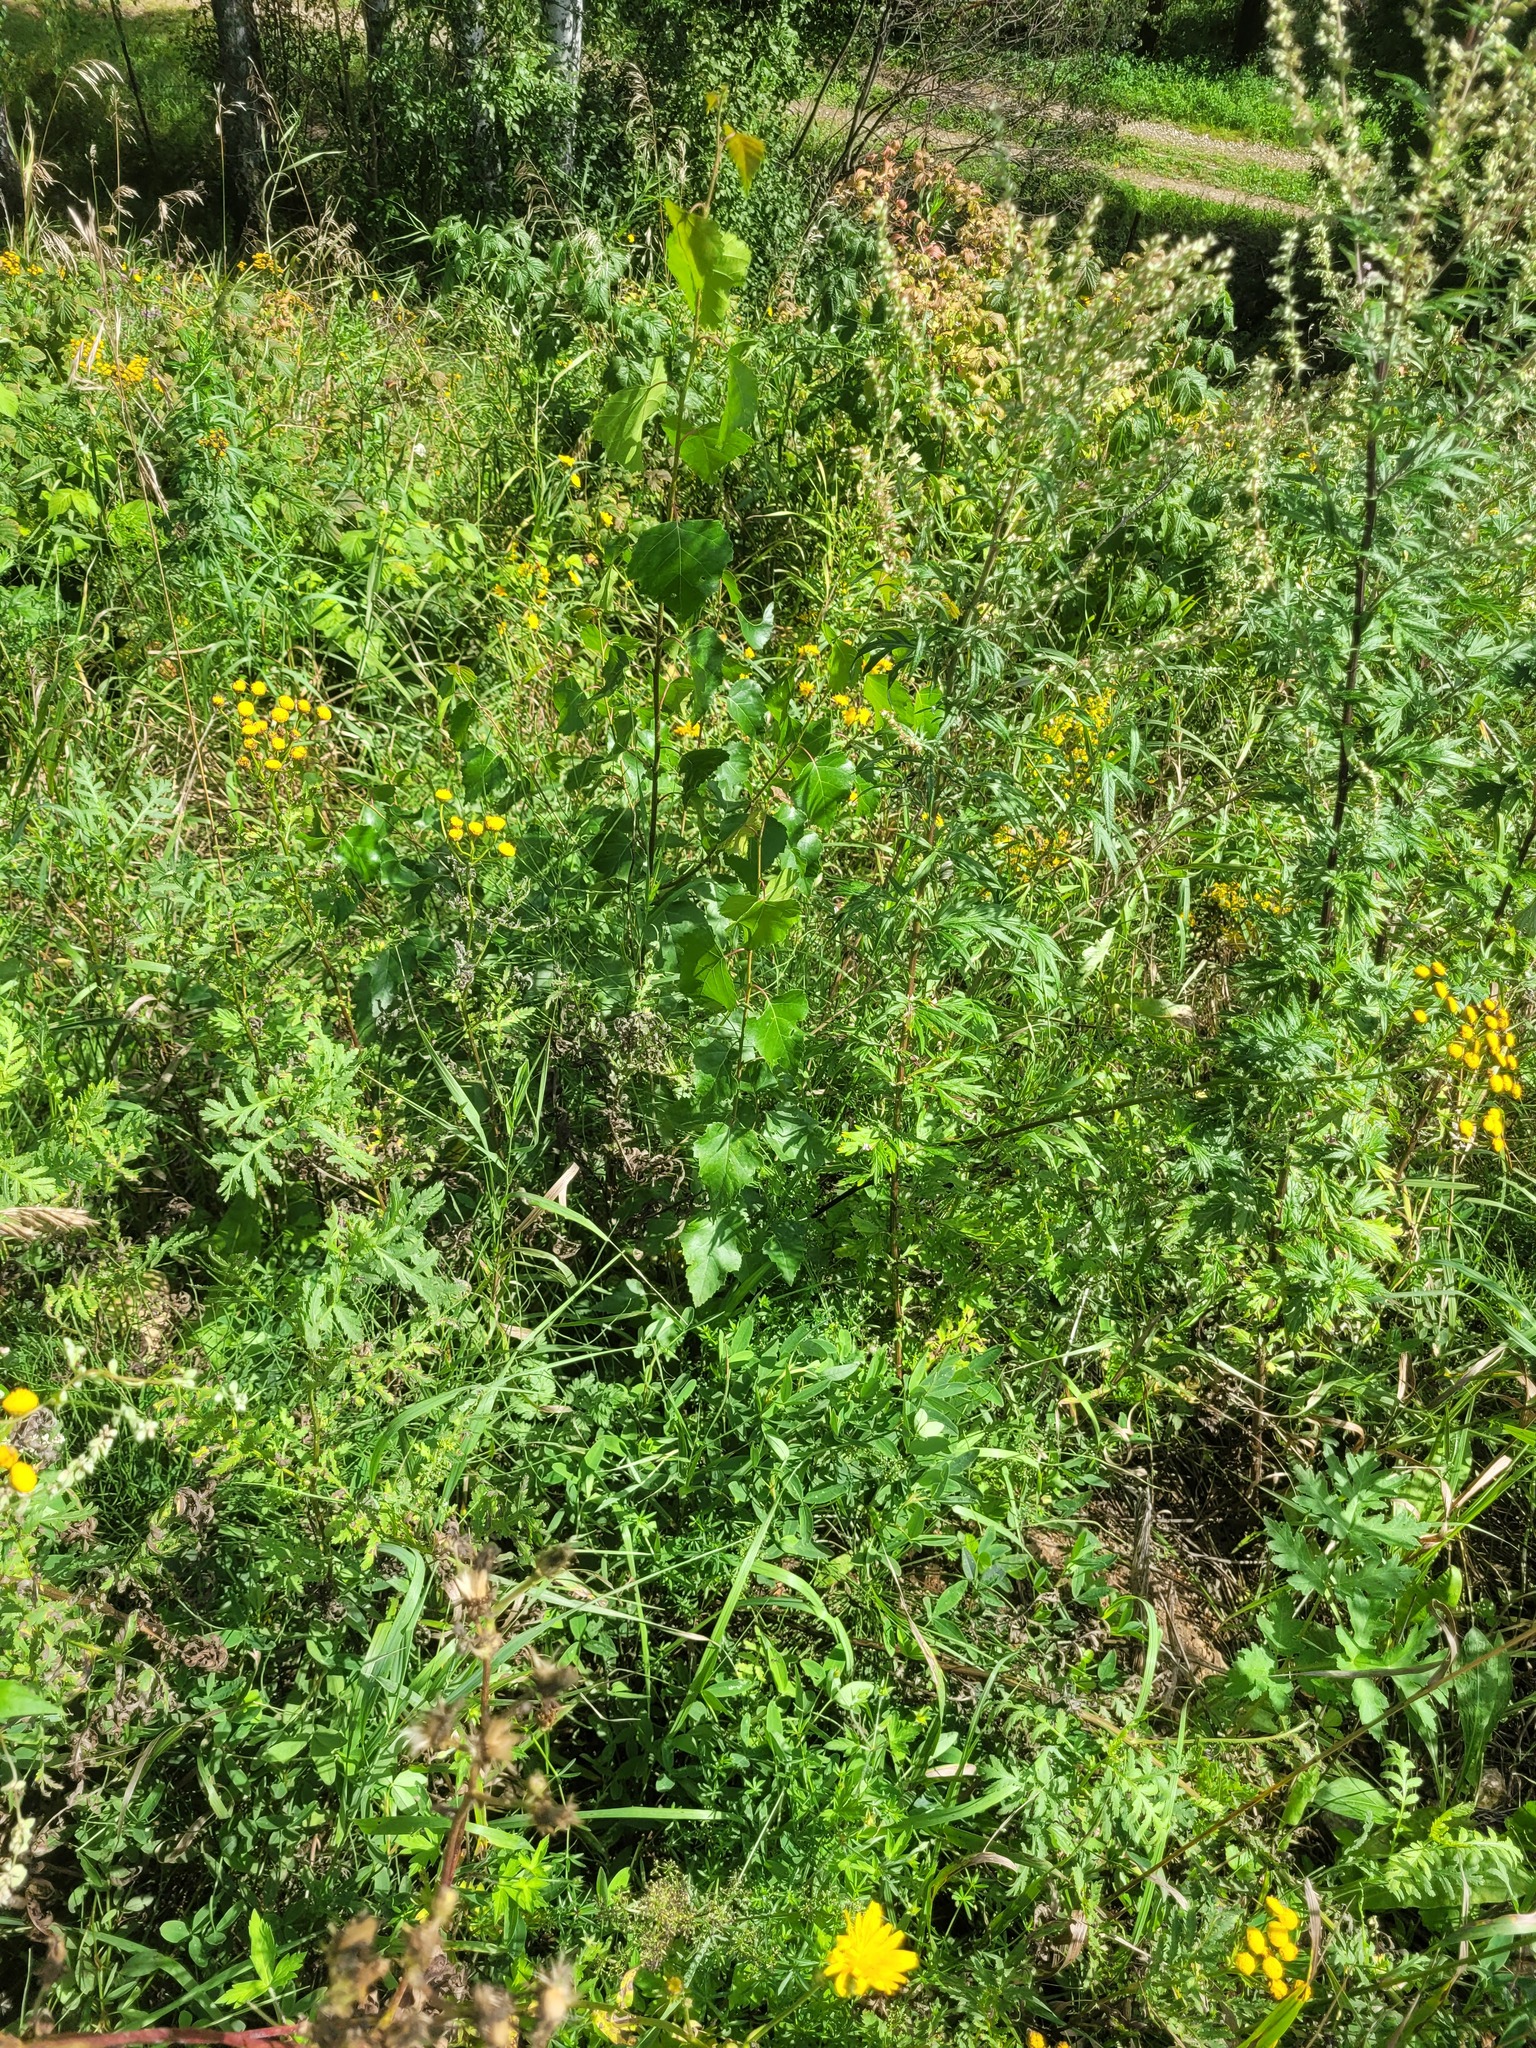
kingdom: Plantae
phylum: Tracheophyta
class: Magnoliopsida
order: Fagales
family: Betulaceae
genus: Betula
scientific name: Betula pendula
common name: Silver birch
